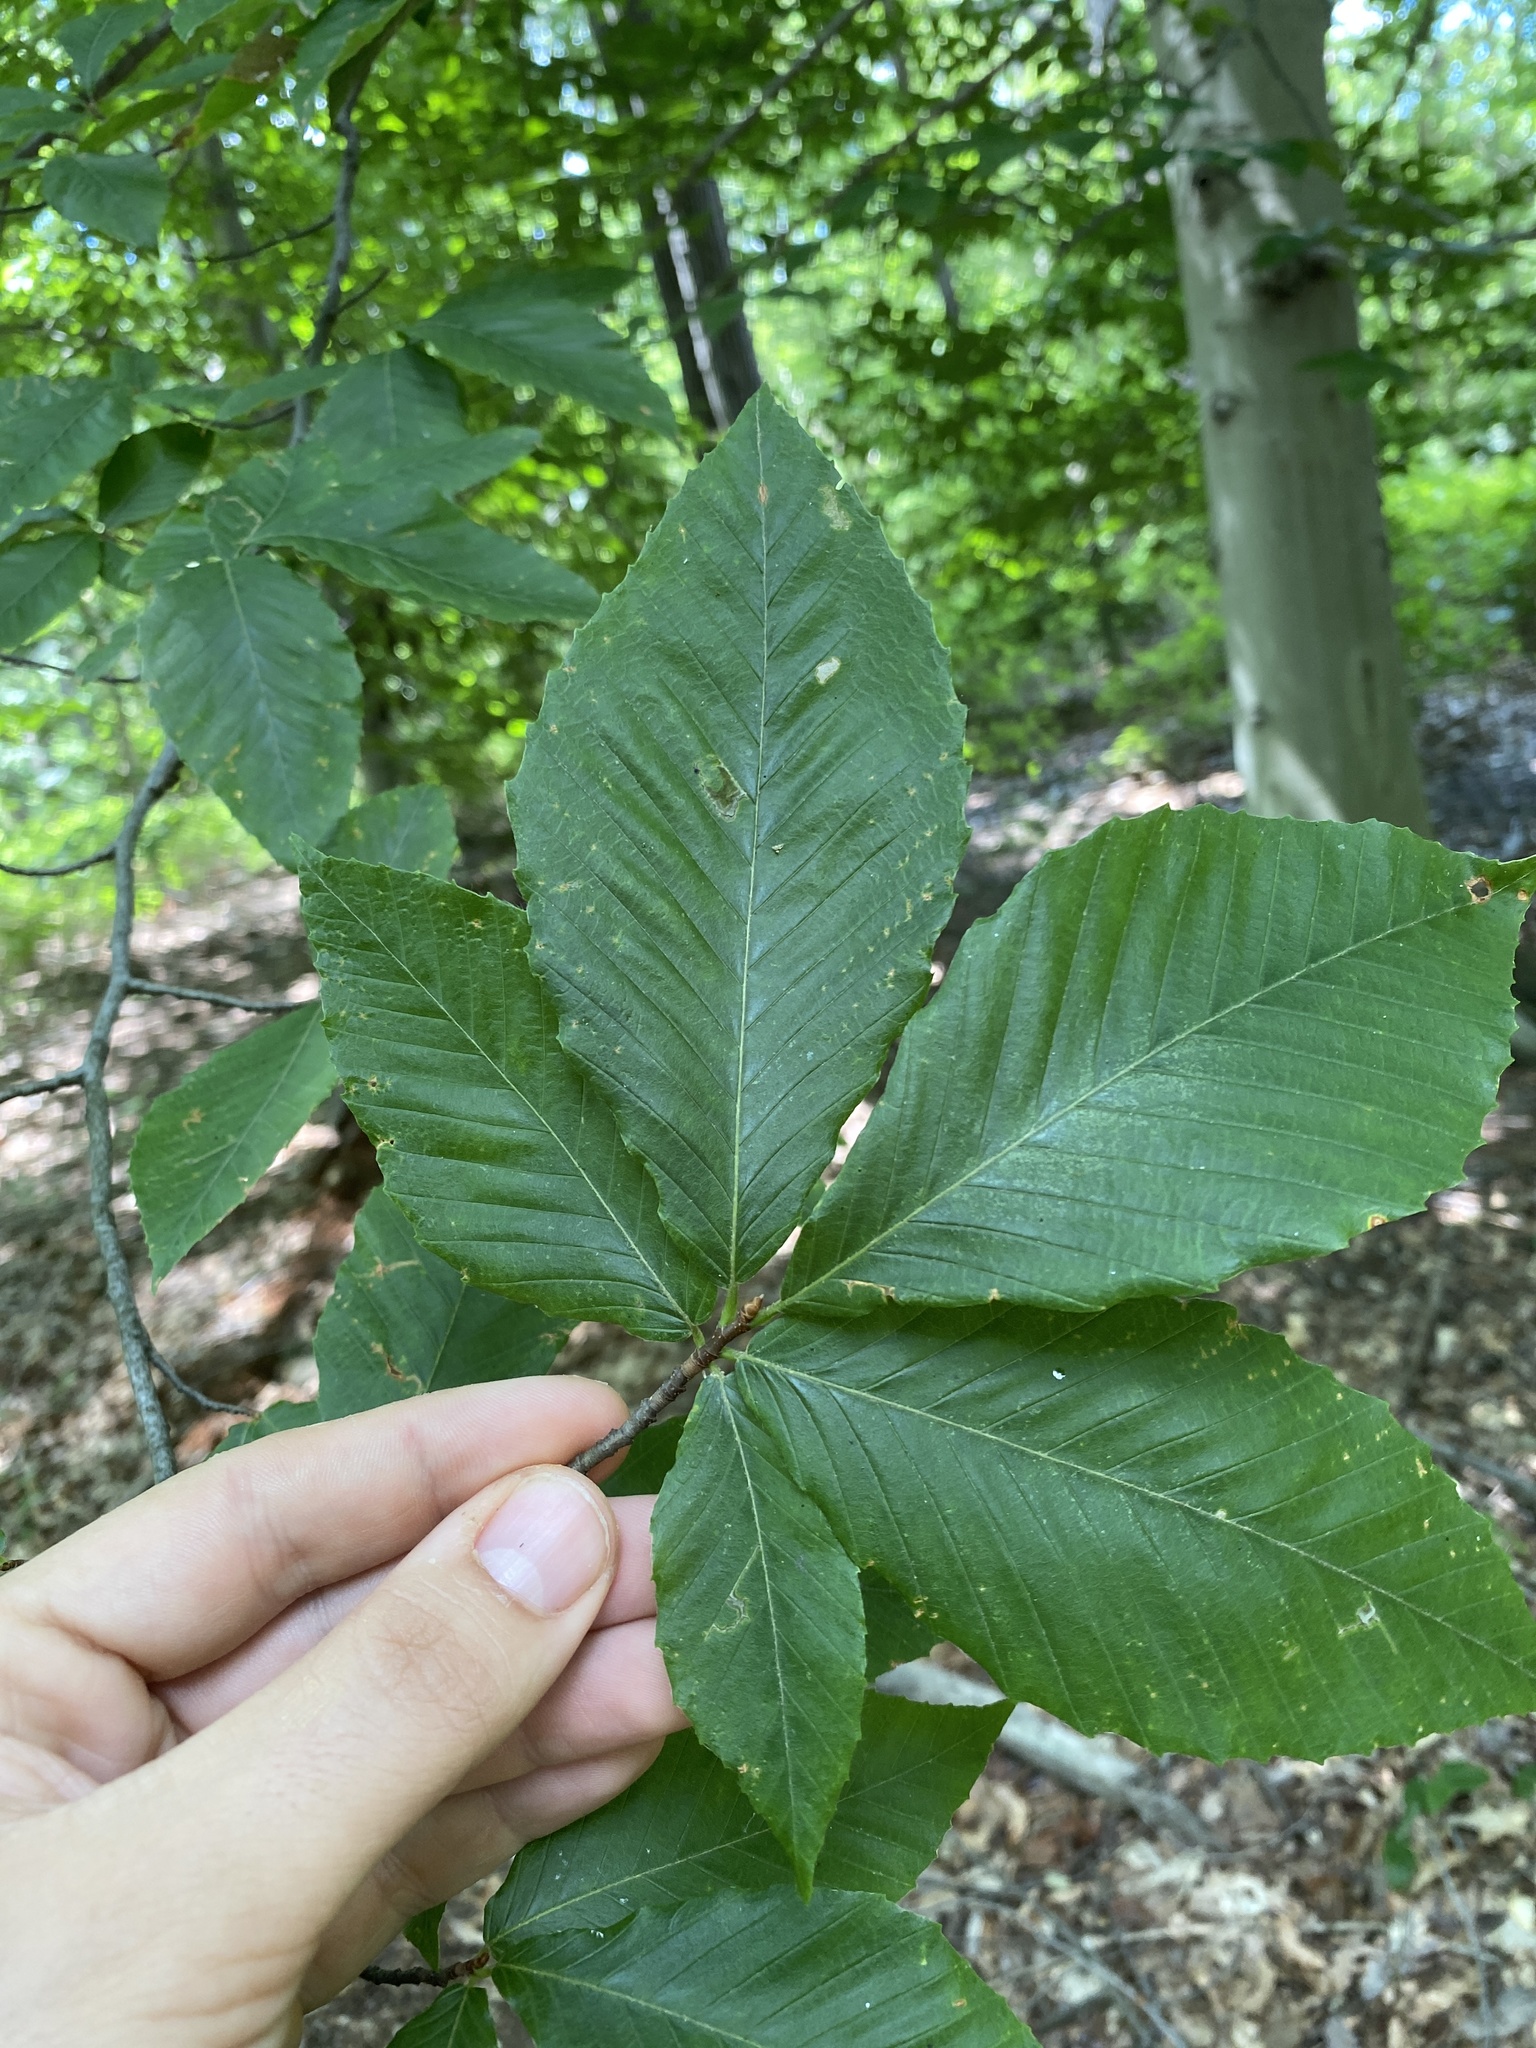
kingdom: Plantae
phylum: Tracheophyta
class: Magnoliopsida
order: Fagales
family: Fagaceae
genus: Fagus
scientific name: Fagus grandifolia
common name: American beech
